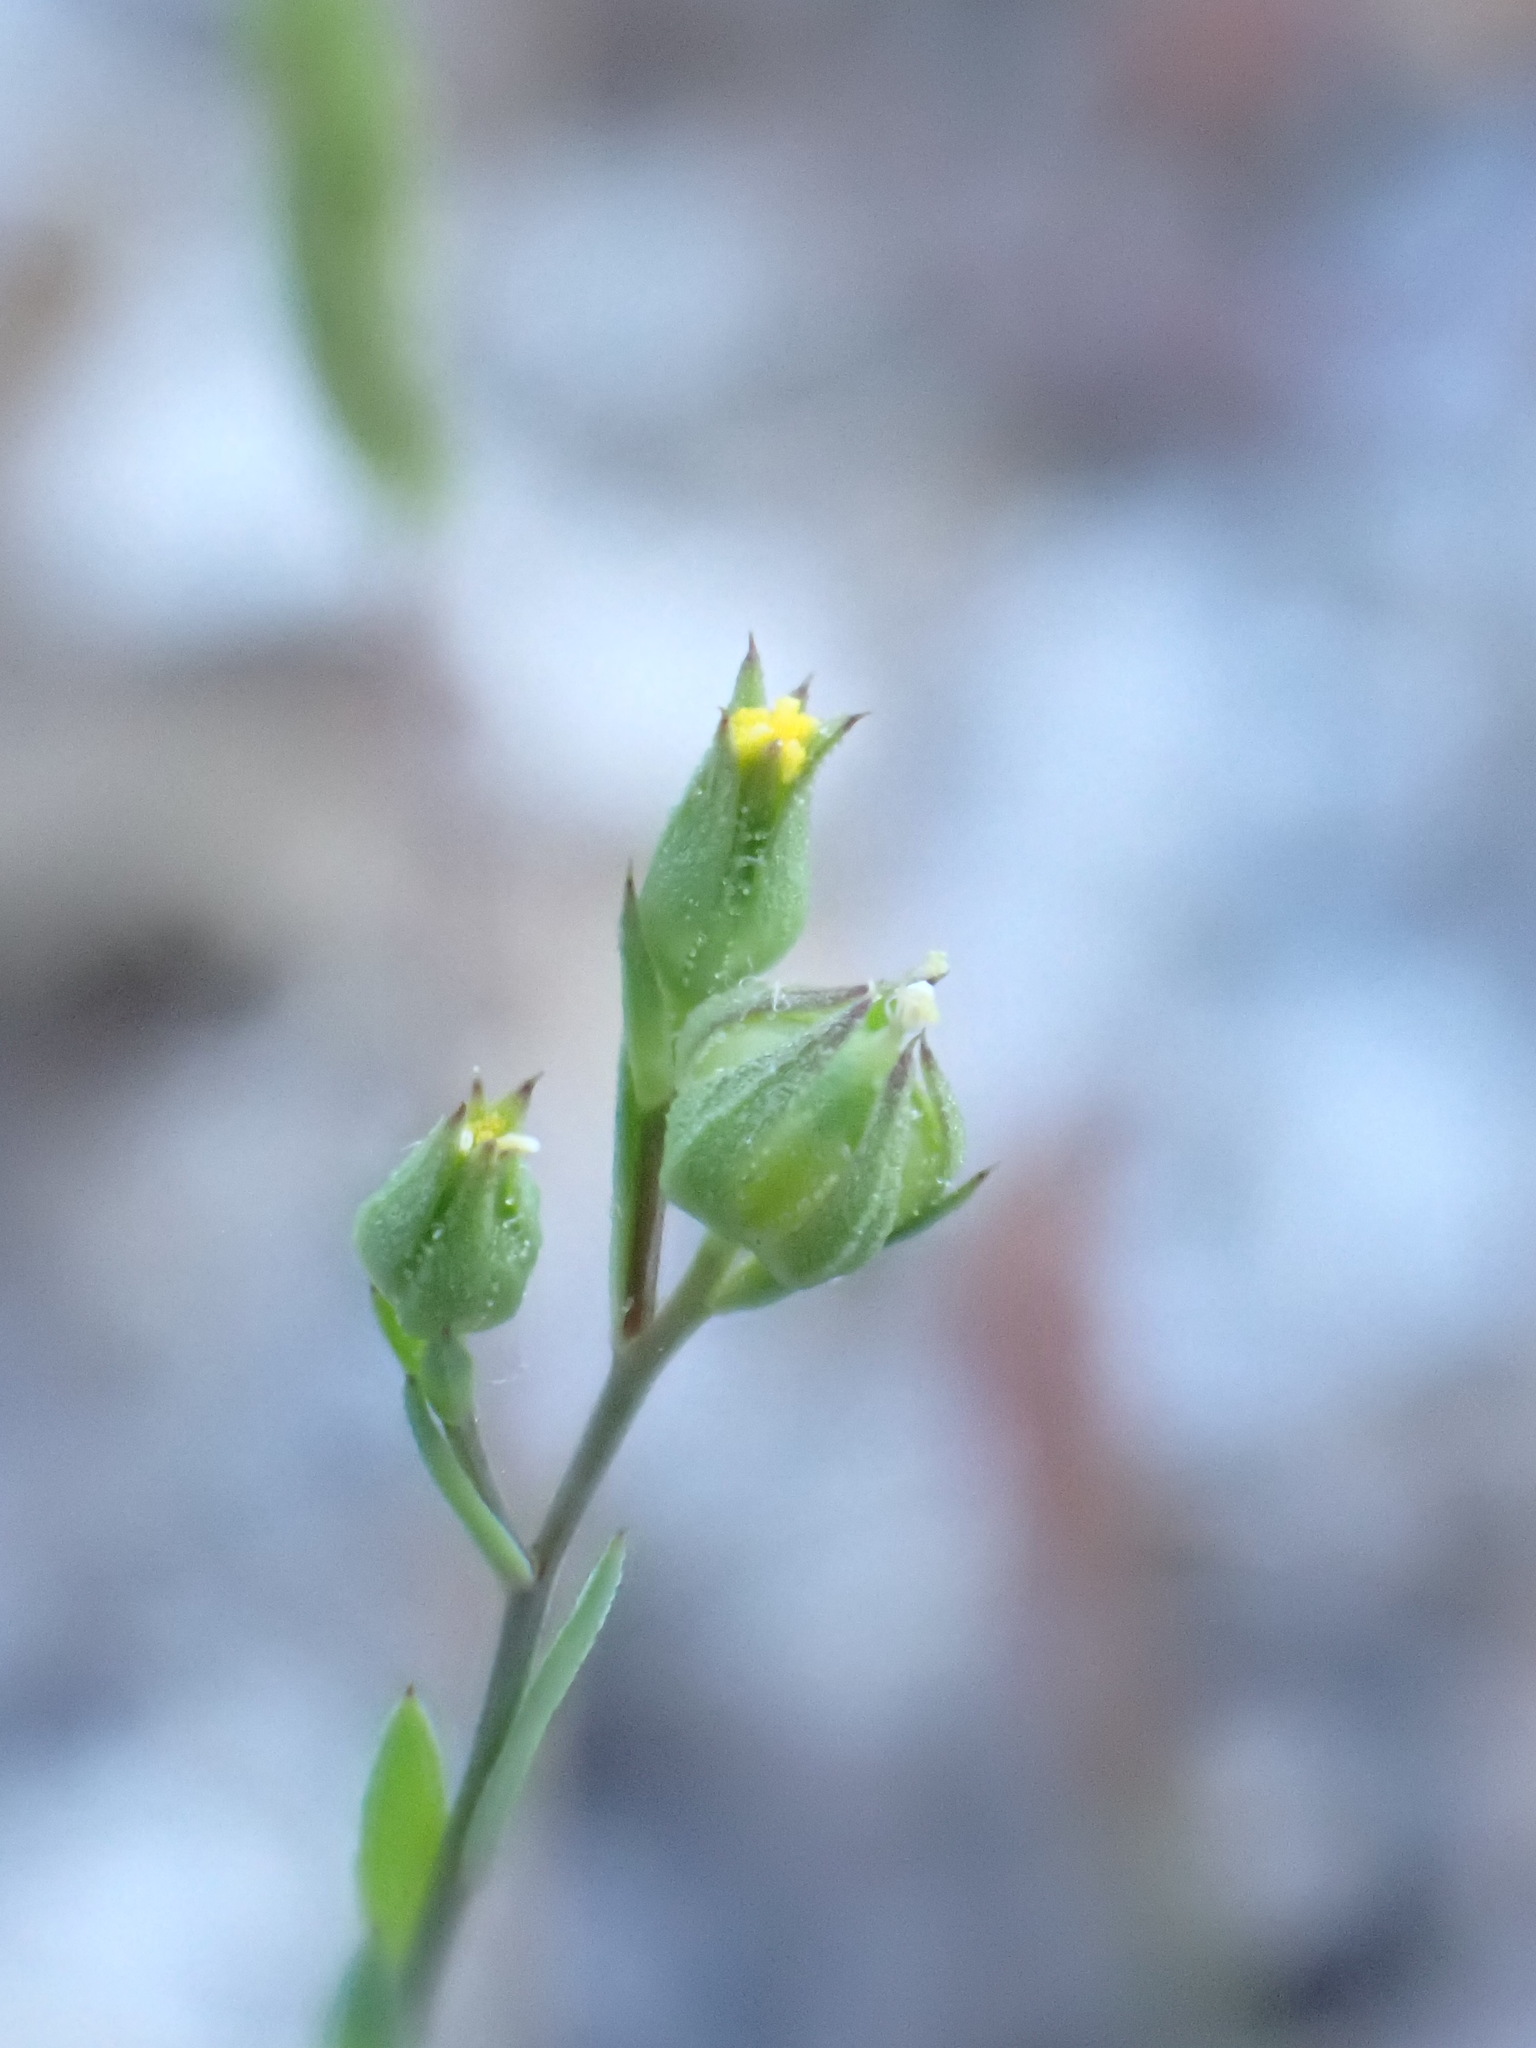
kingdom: Plantae
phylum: Tracheophyta
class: Magnoliopsida
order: Malpighiales
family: Linaceae
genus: Linum
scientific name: Linum trigynum
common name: French flax
